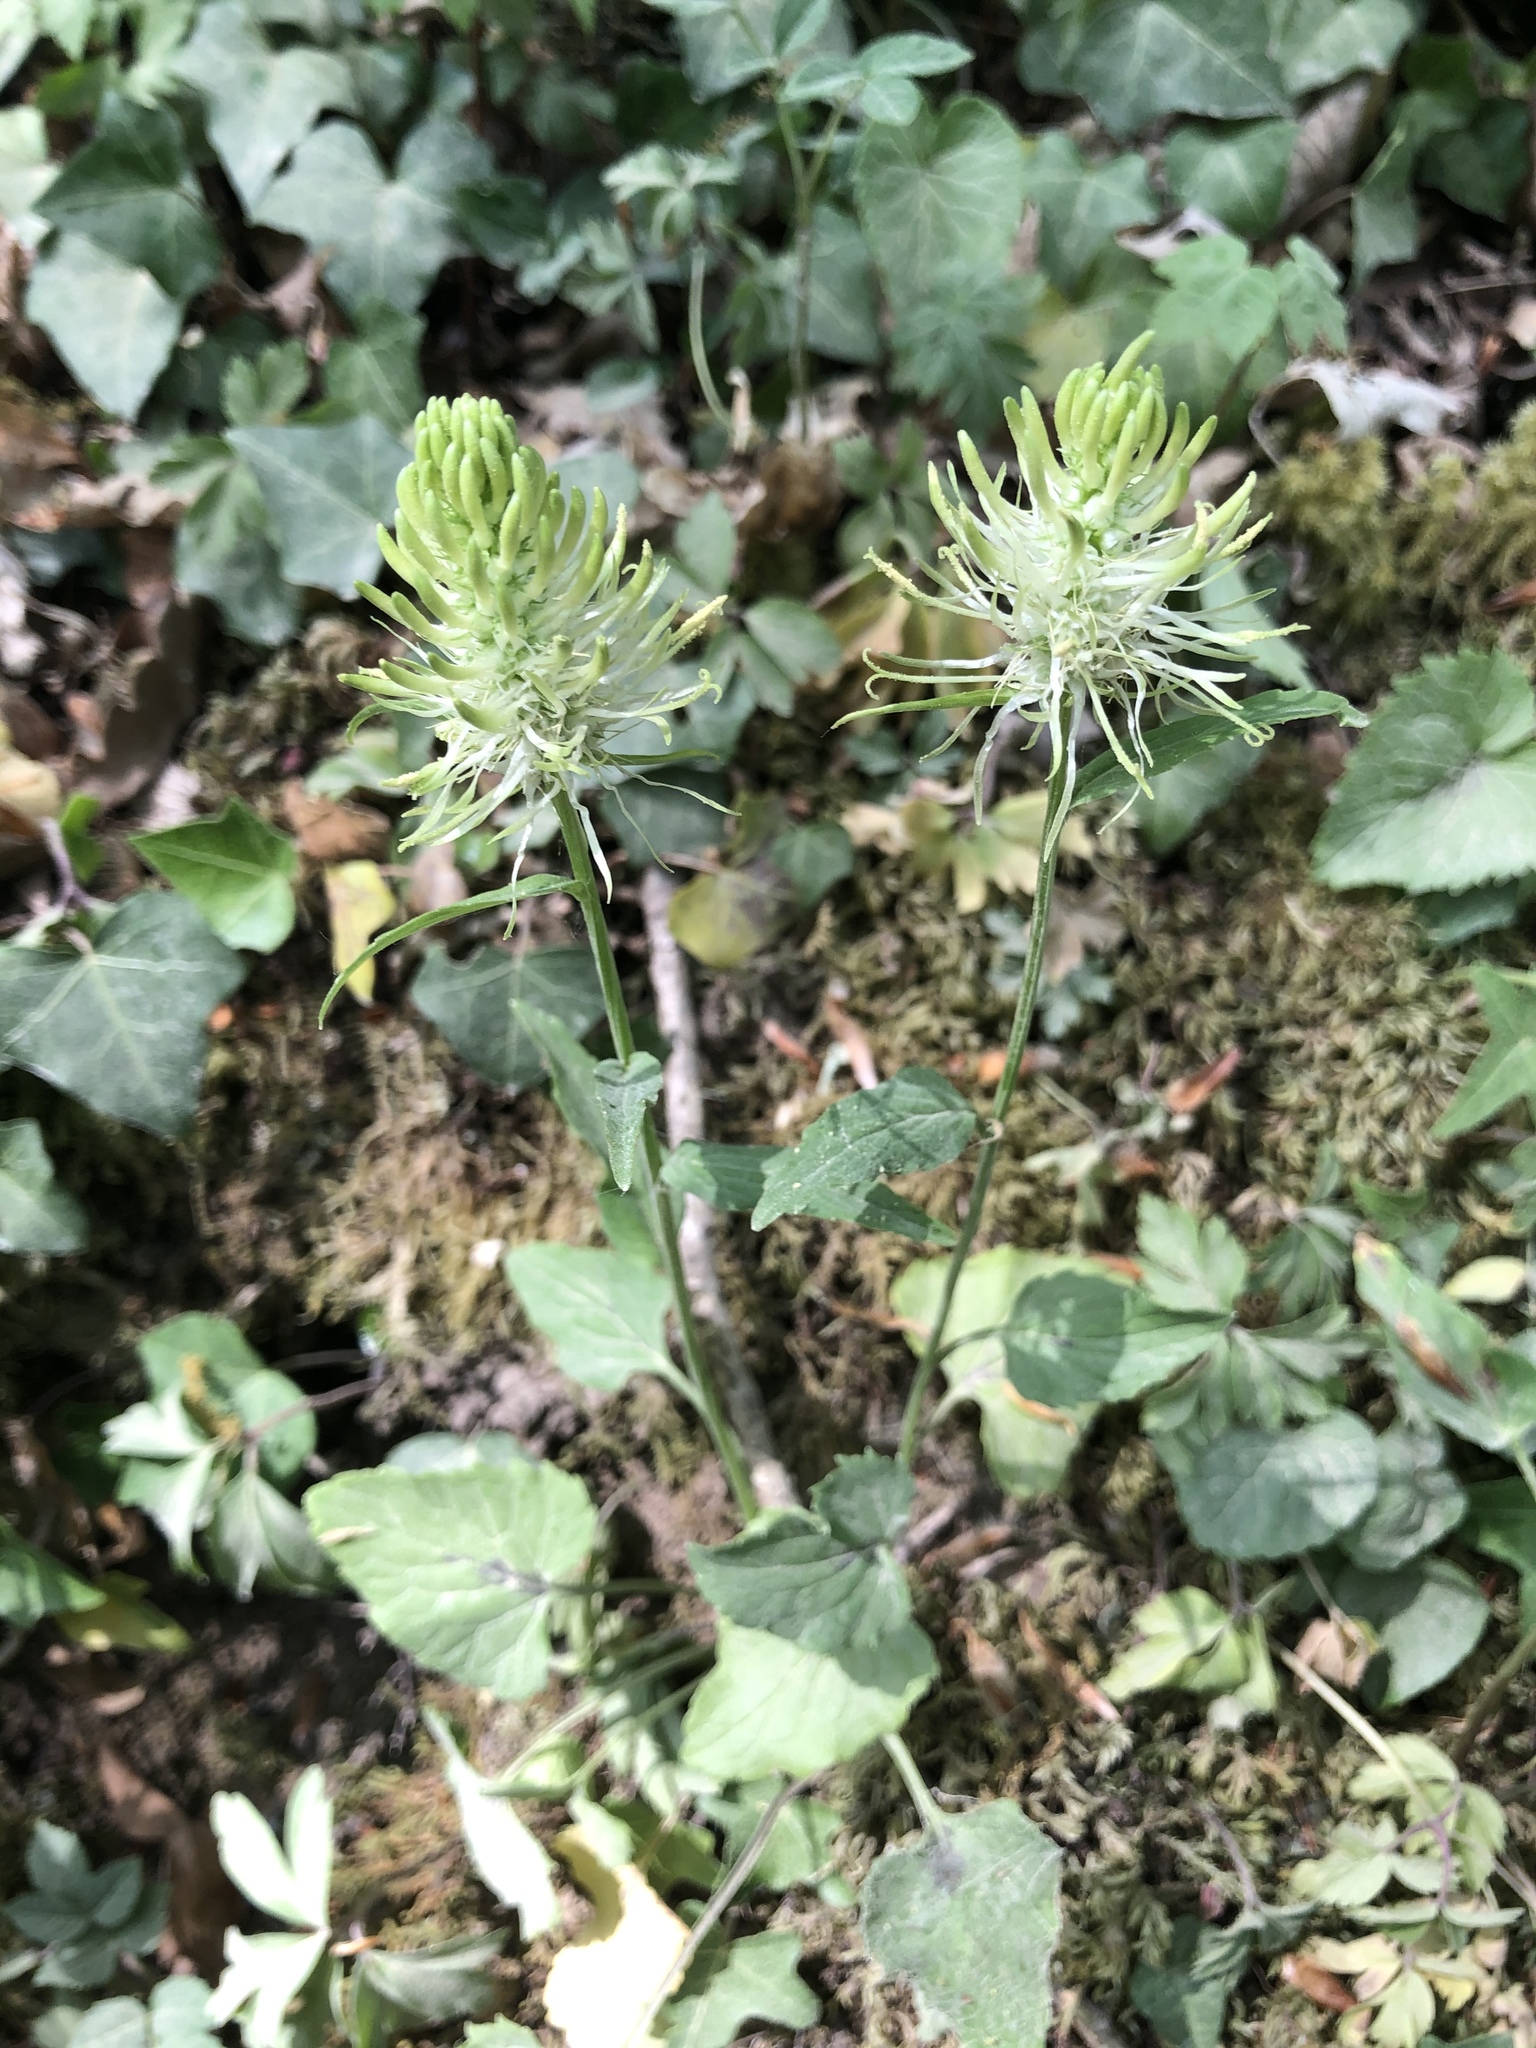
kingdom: Plantae
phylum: Tracheophyta
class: Magnoliopsida
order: Asterales
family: Campanulaceae
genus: Phyteuma
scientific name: Phyteuma spicatum
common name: Spiked rampion
